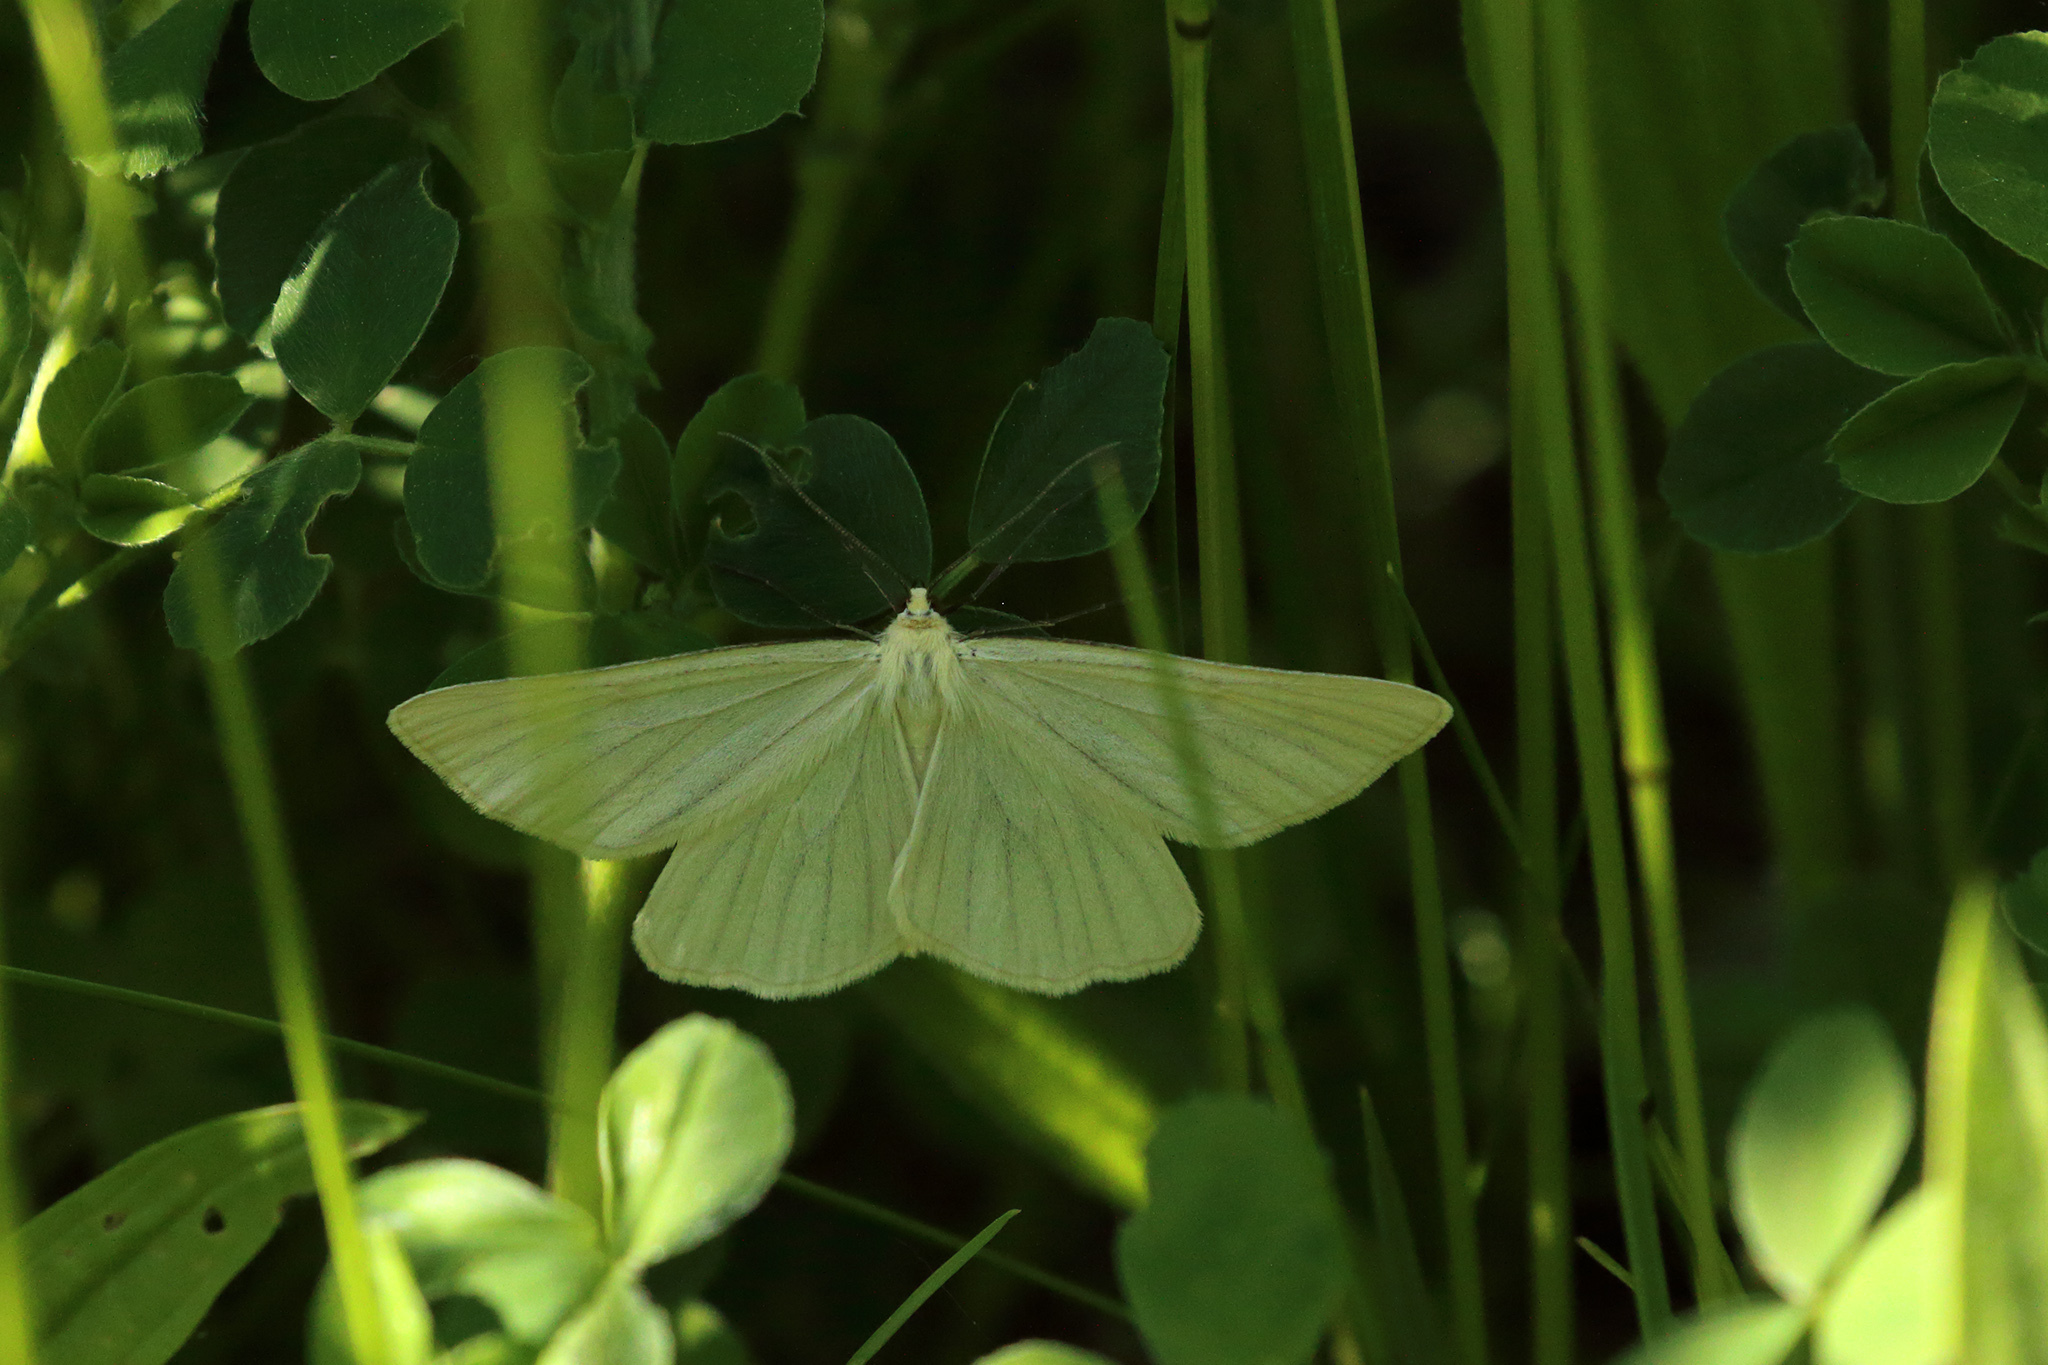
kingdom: Animalia
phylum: Arthropoda
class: Insecta
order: Lepidoptera
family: Geometridae
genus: Siona
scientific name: Siona lineata
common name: Black-veined moth
